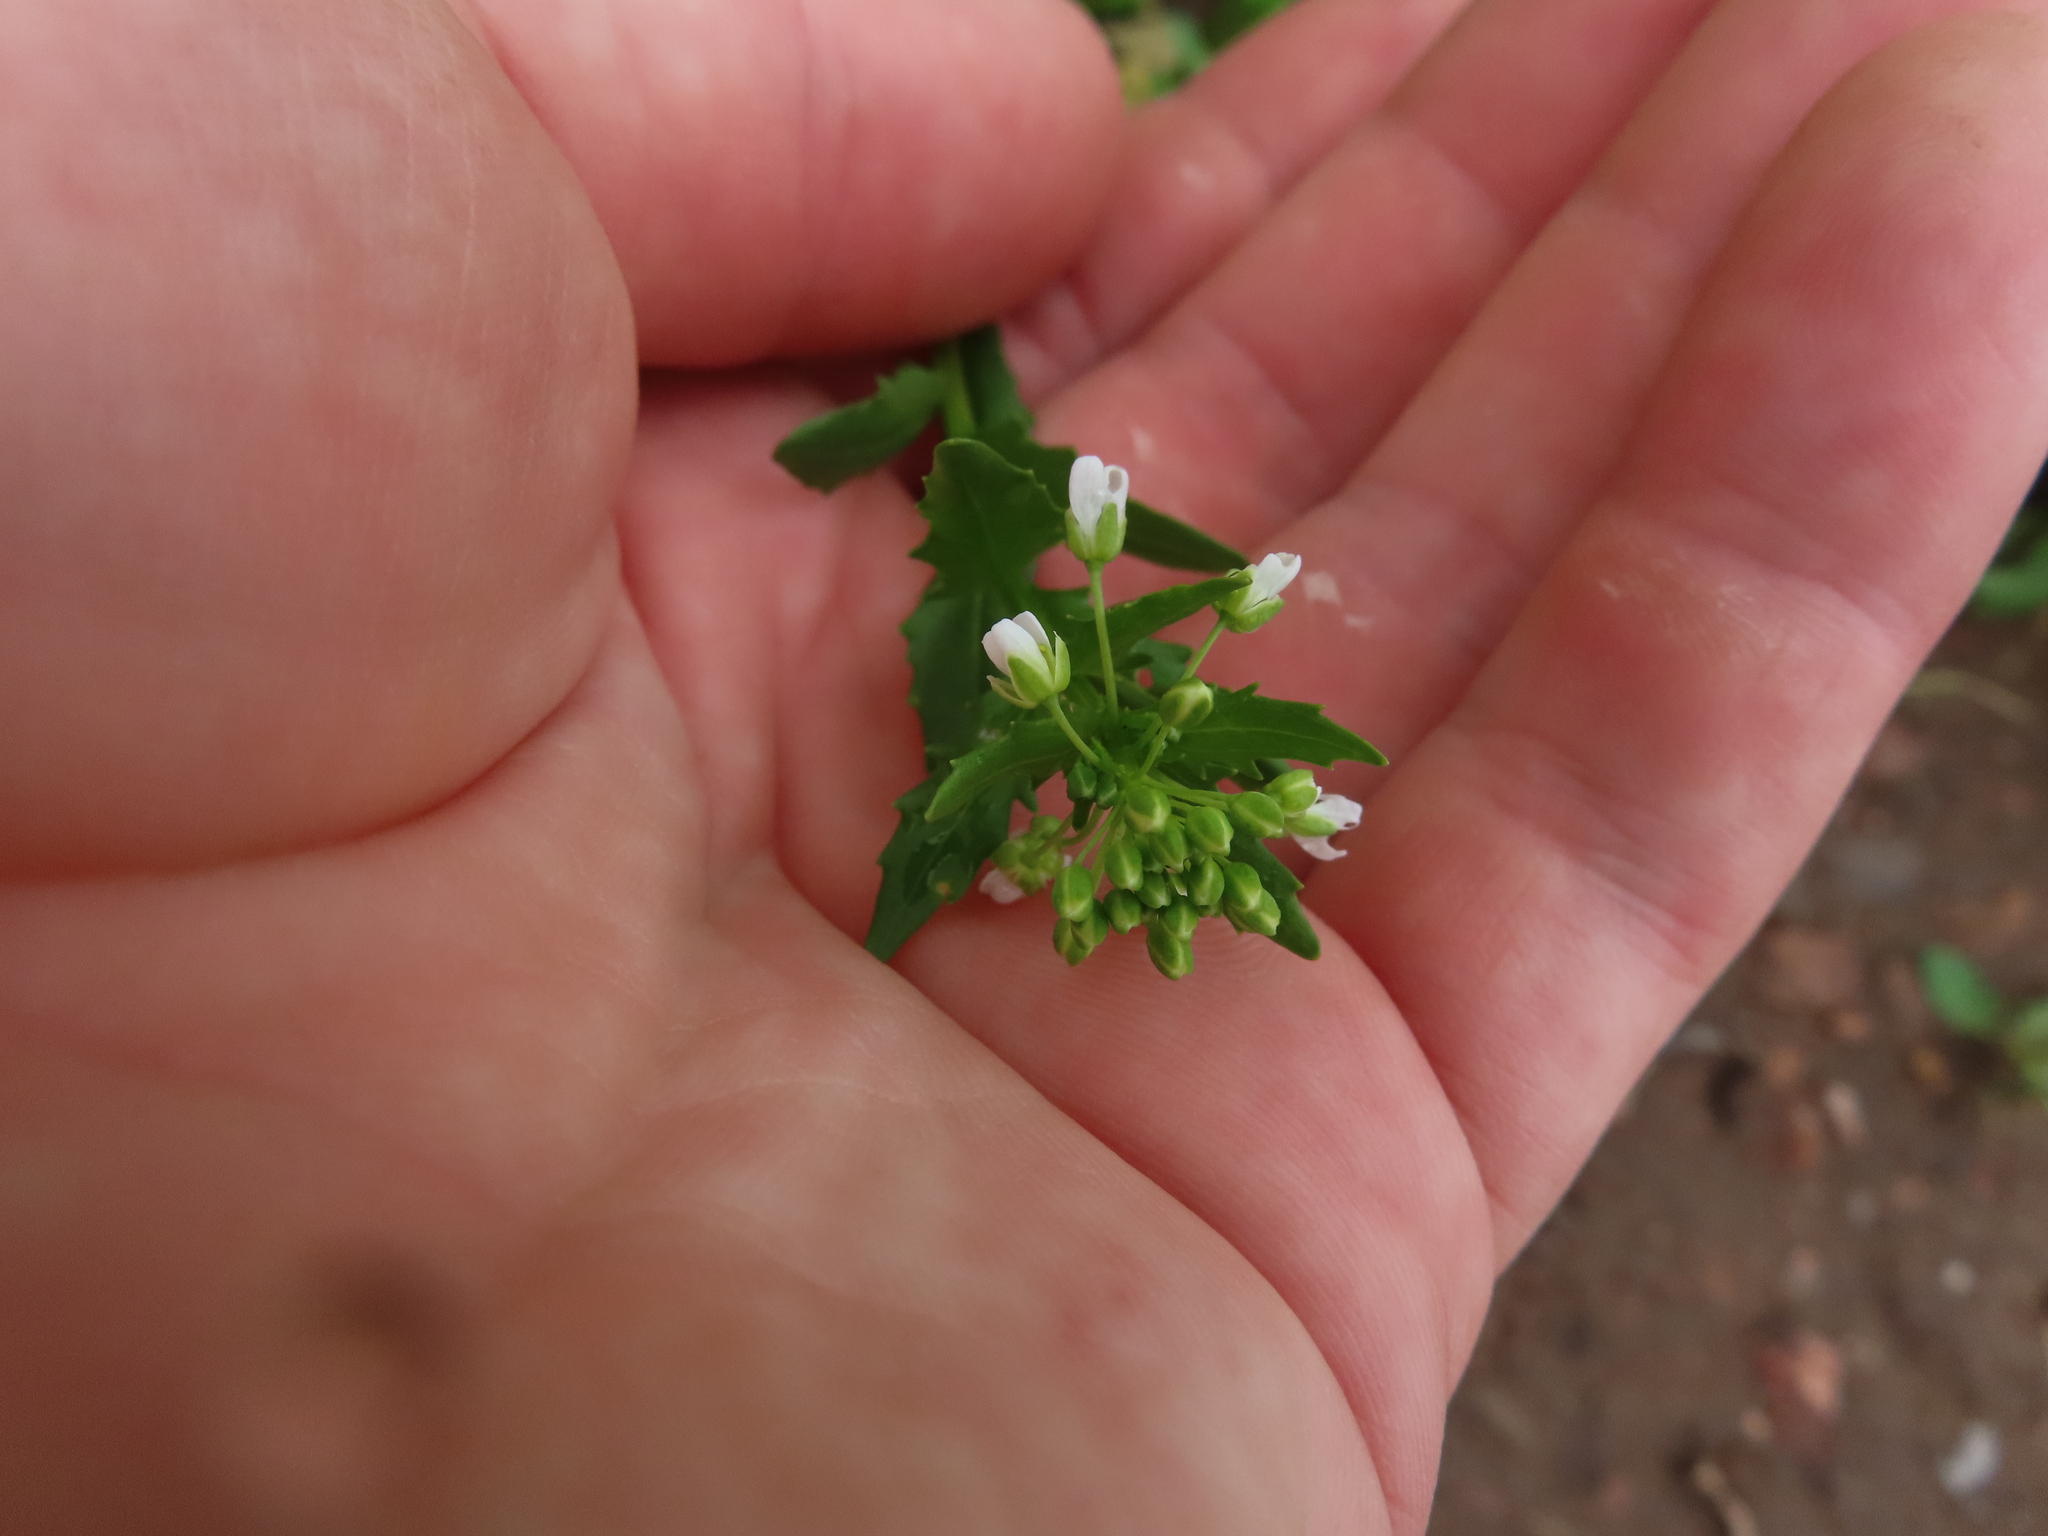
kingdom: Plantae
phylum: Tracheophyta
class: Magnoliopsida
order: Brassicales
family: Brassicaceae
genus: Thlaspi
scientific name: Thlaspi arvense
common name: Field pennycress
